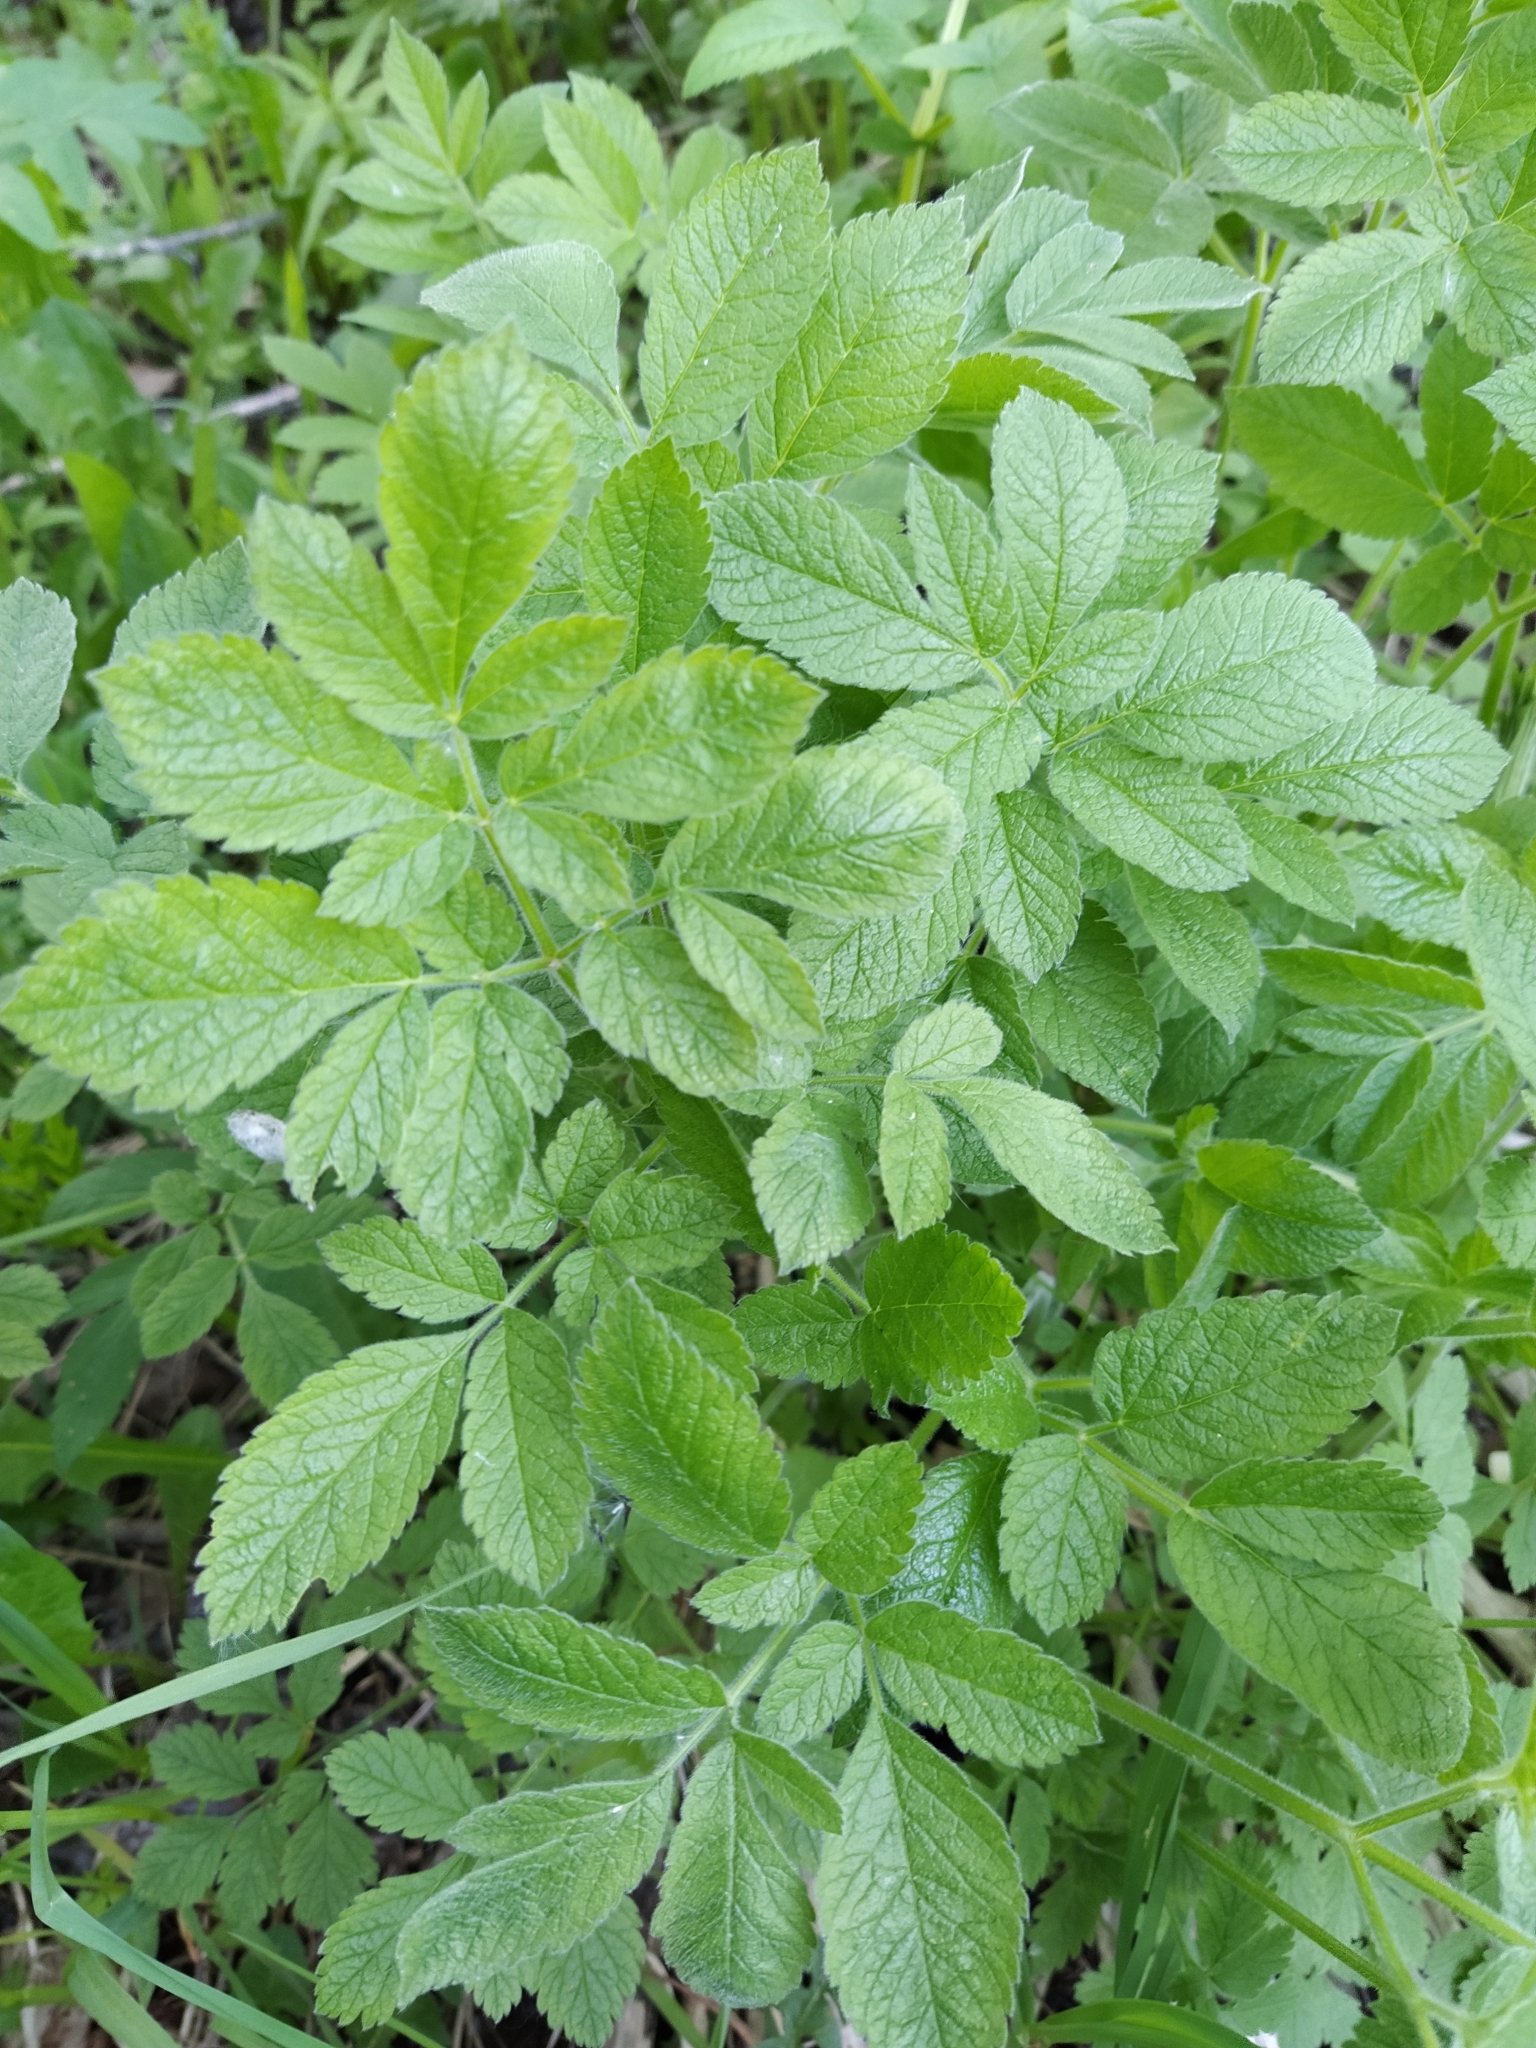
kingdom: Plantae
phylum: Tracheophyta
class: Magnoliopsida
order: Apiales
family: Apiaceae
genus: Chaerophyllum
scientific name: Chaerophyllum aromaticum
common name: Broadleaf chervil
